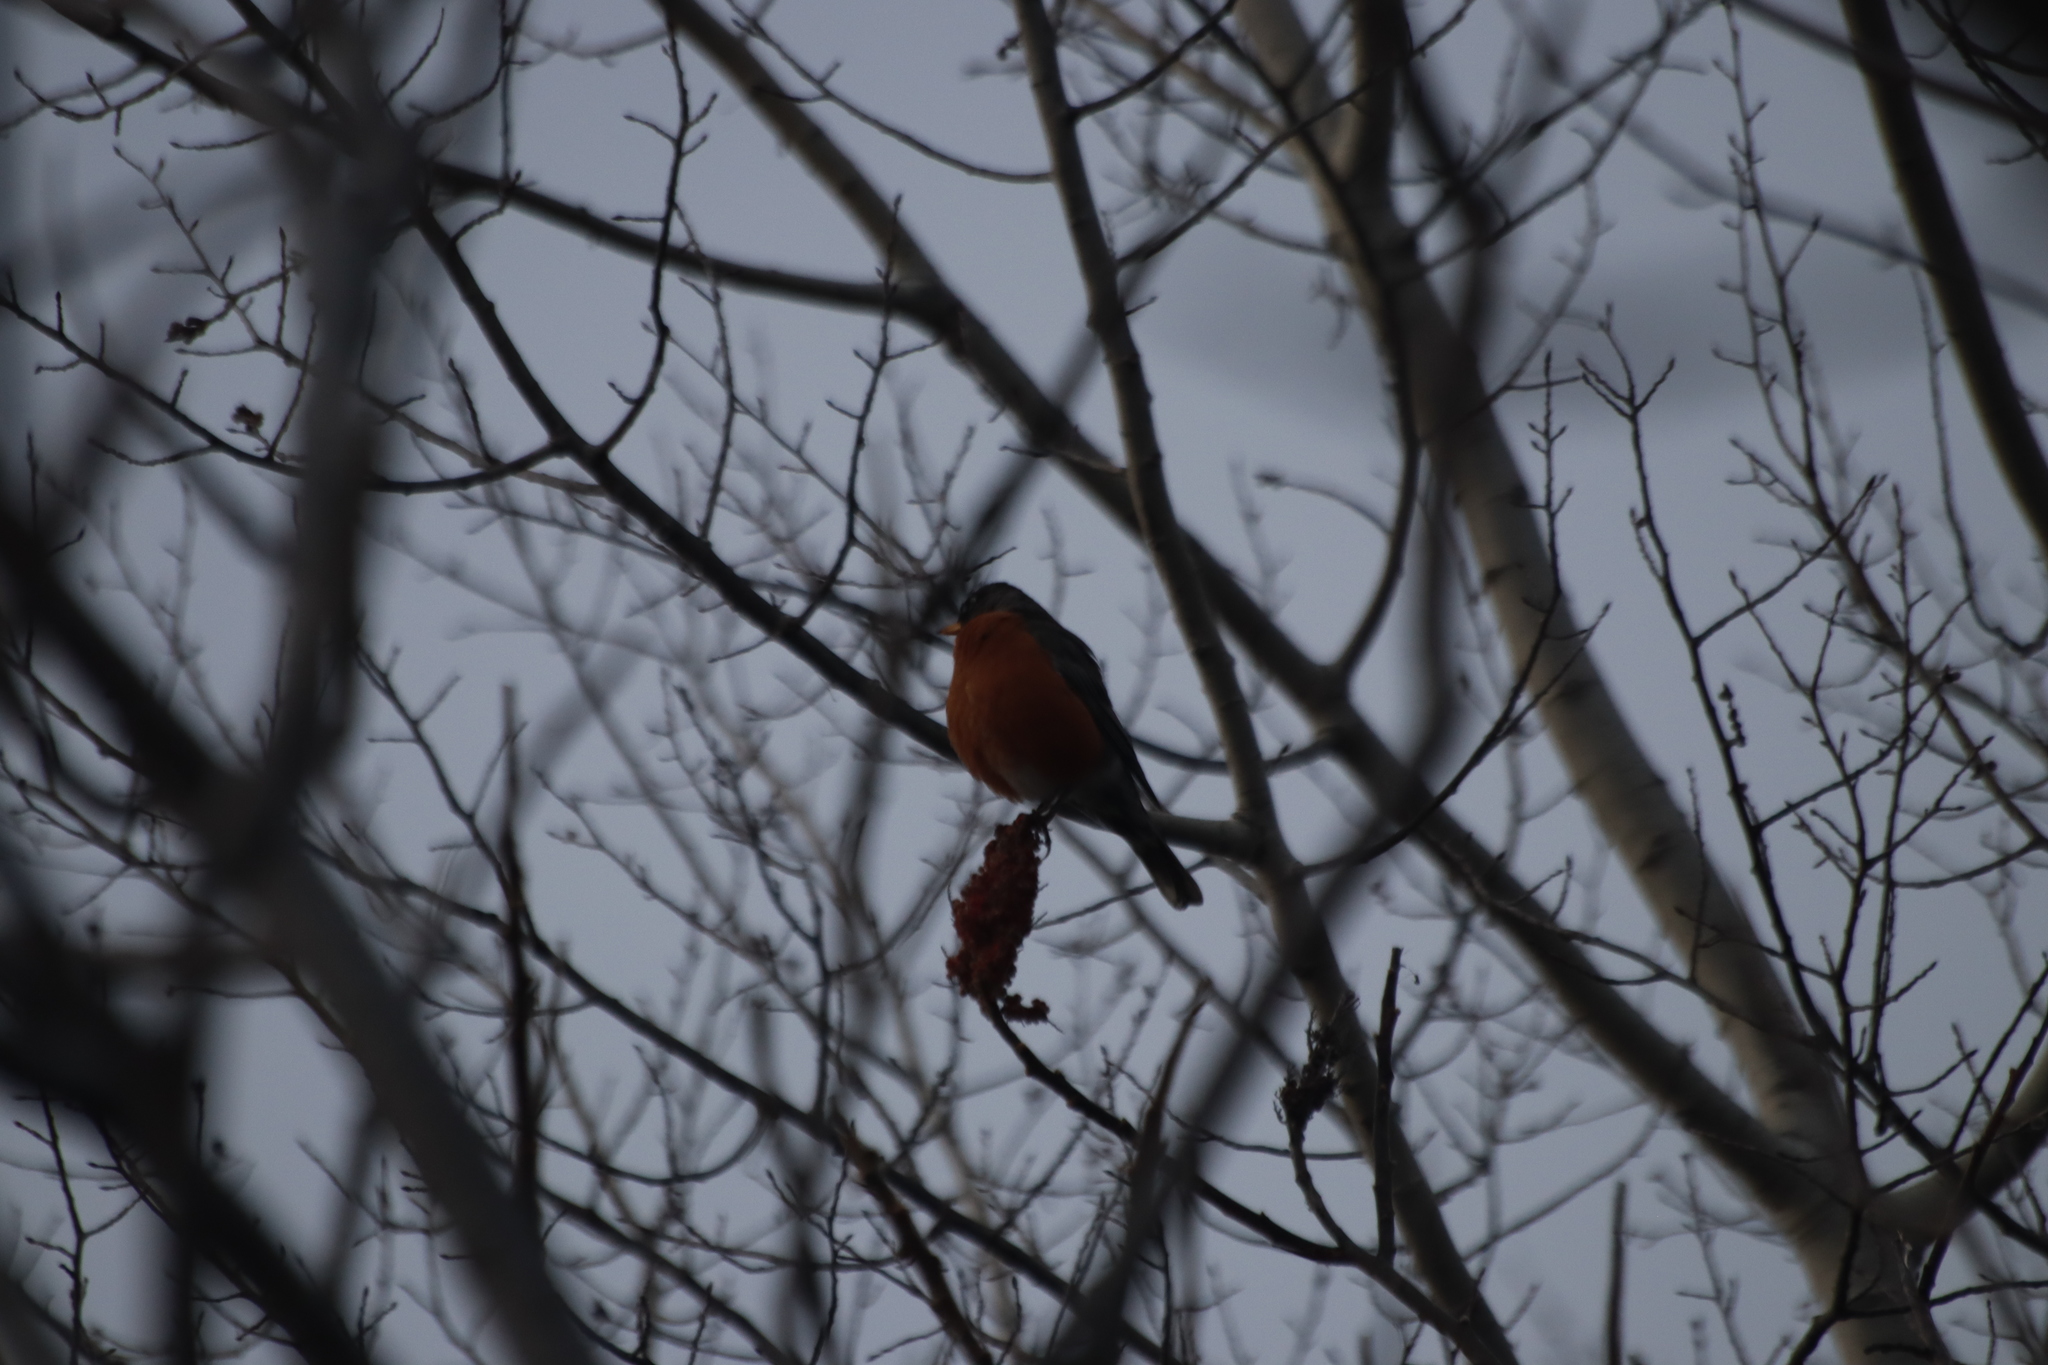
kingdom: Animalia
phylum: Chordata
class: Aves
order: Passeriformes
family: Turdidae
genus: Turdus
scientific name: Turdus migratorius
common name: American robin
